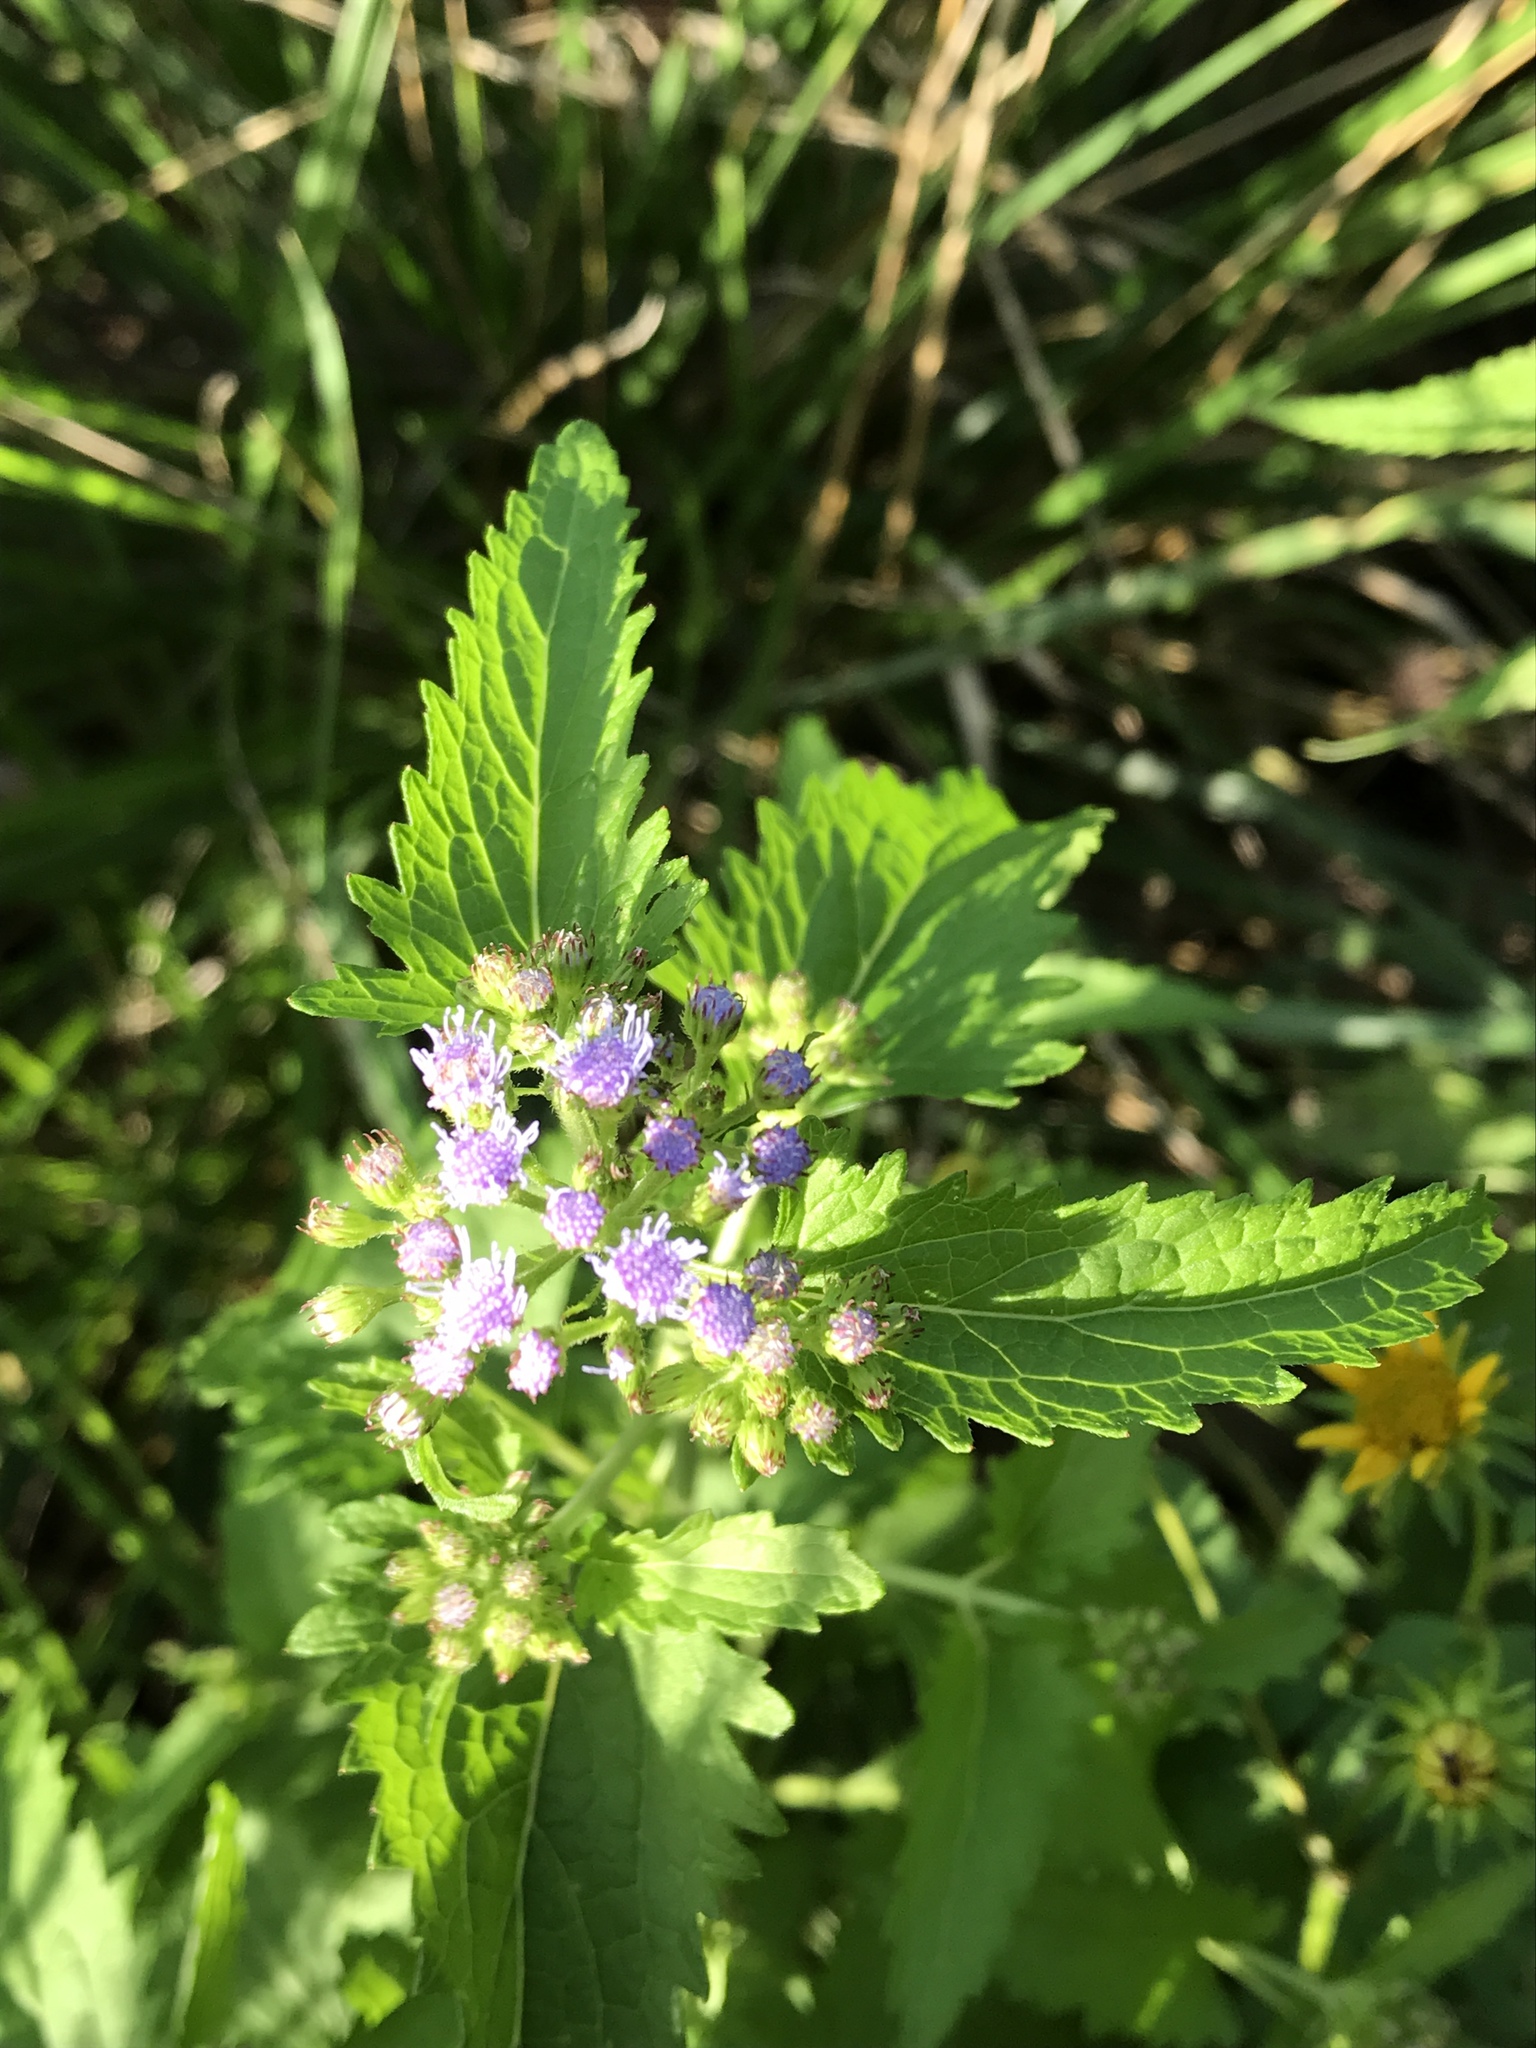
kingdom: Plantae
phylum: Tracheophyta
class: Magnoliopsida
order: Asterales
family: Asteraceae
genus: Conoclinium
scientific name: Conoclinium coelestinum
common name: Blue mistflower
